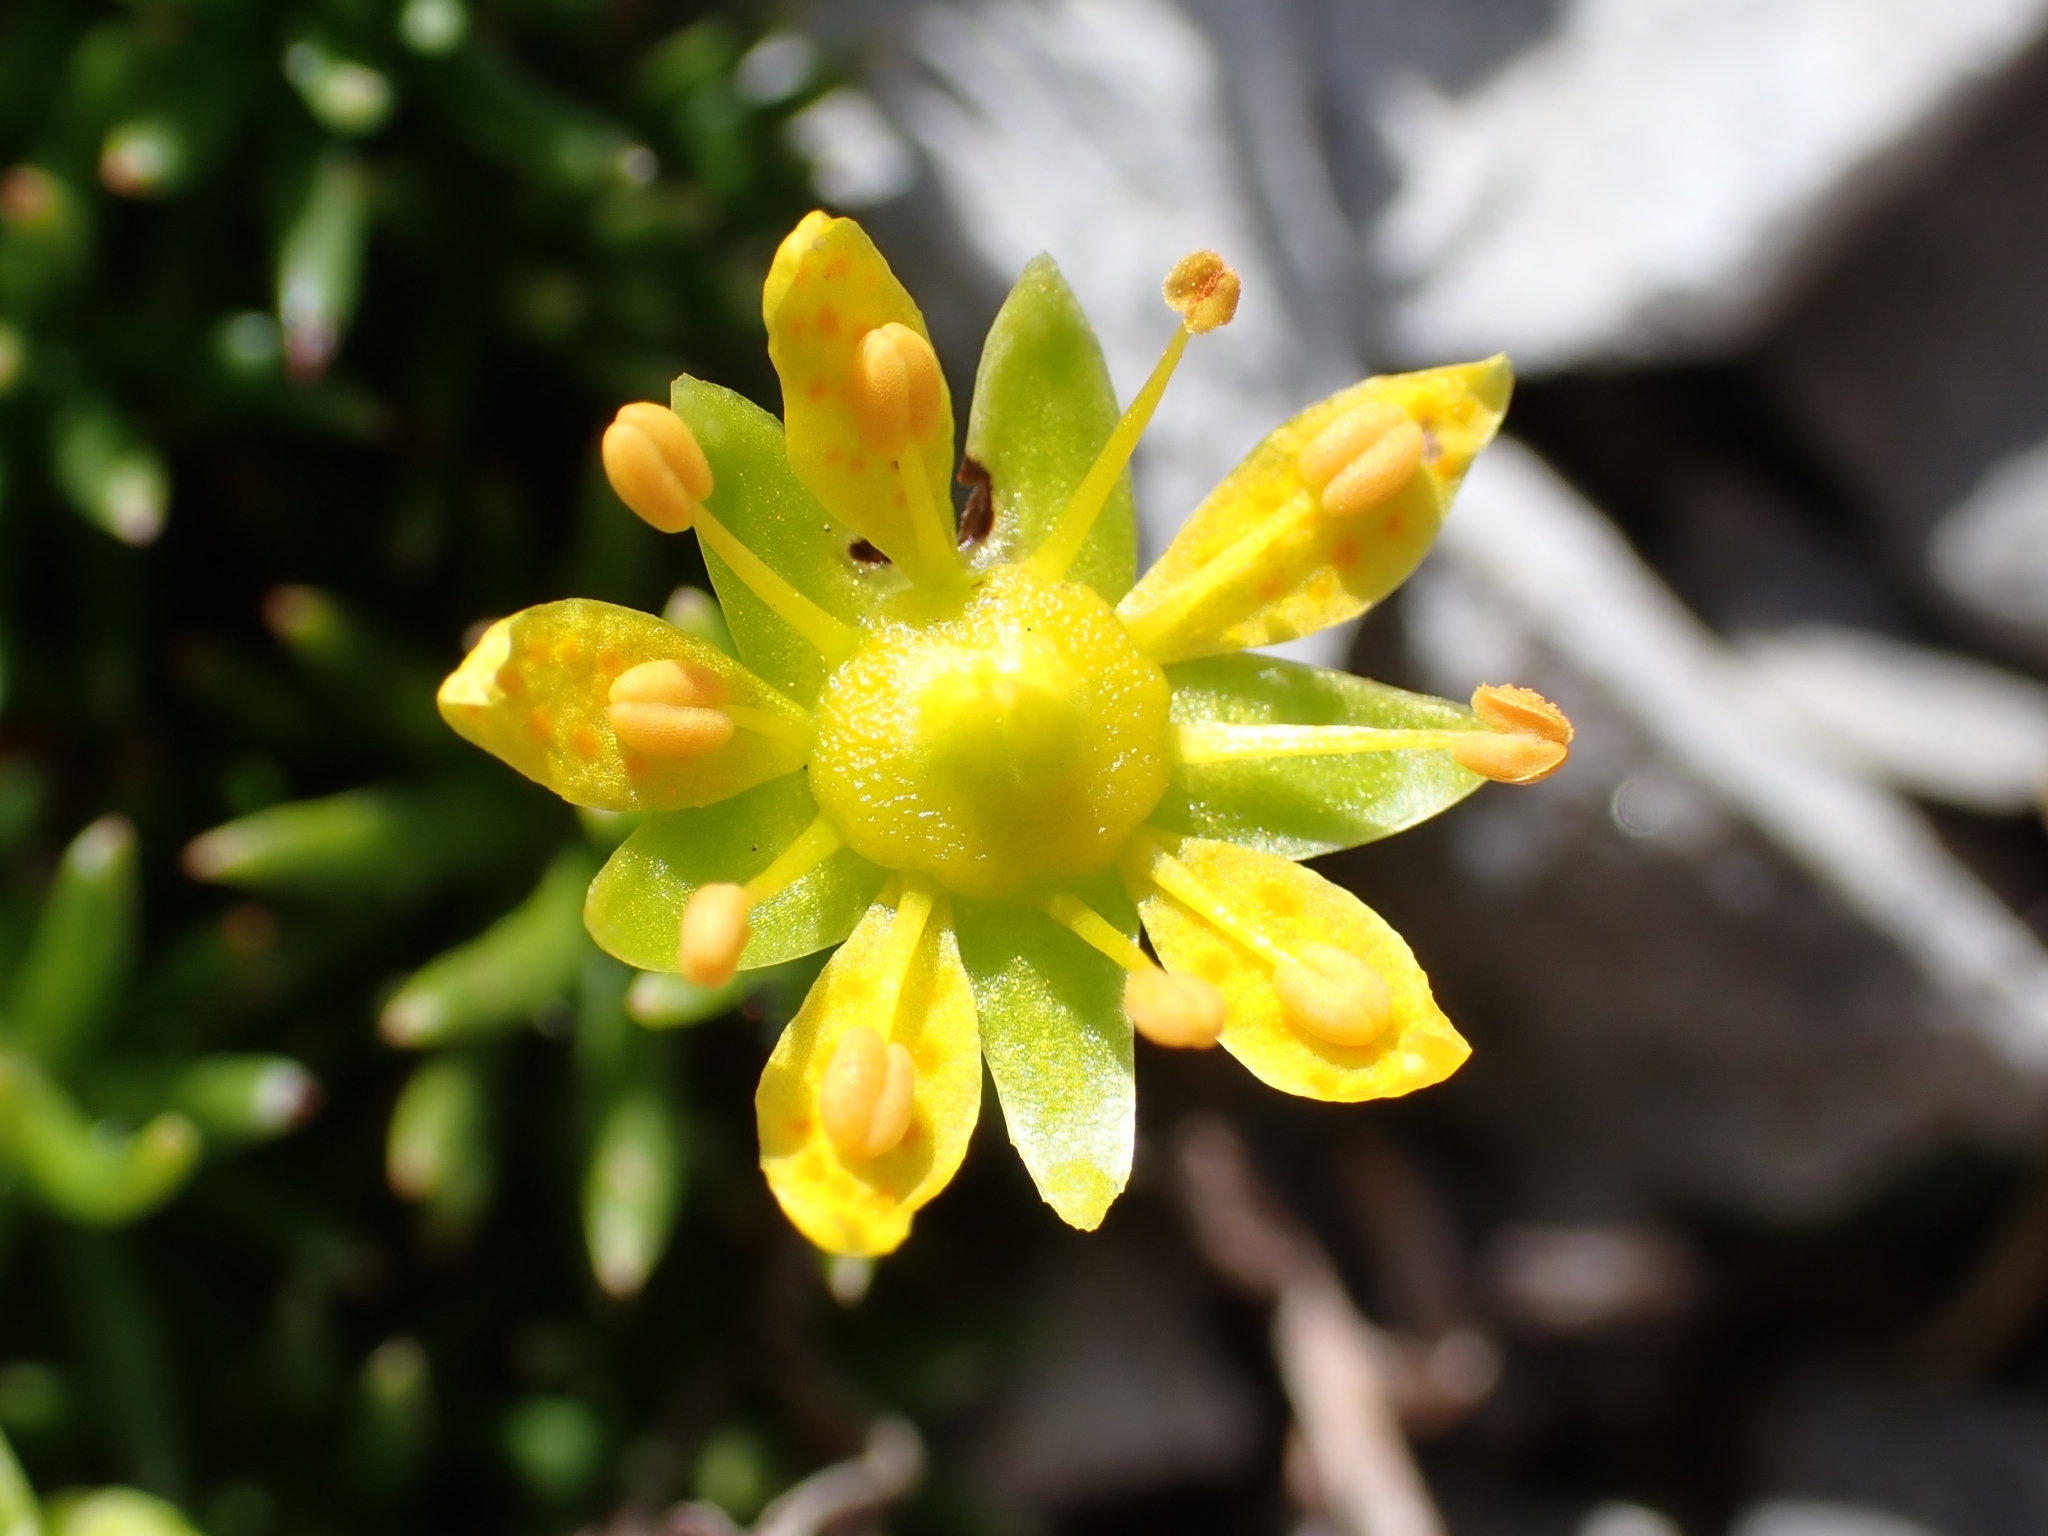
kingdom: Plantae
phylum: Tracheophyta
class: Magnoliopsida
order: Saxifragales
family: Saxifragaceae
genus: Saxifraga
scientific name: Saxifraga aizoides
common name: Yellow mountain saxifrage
